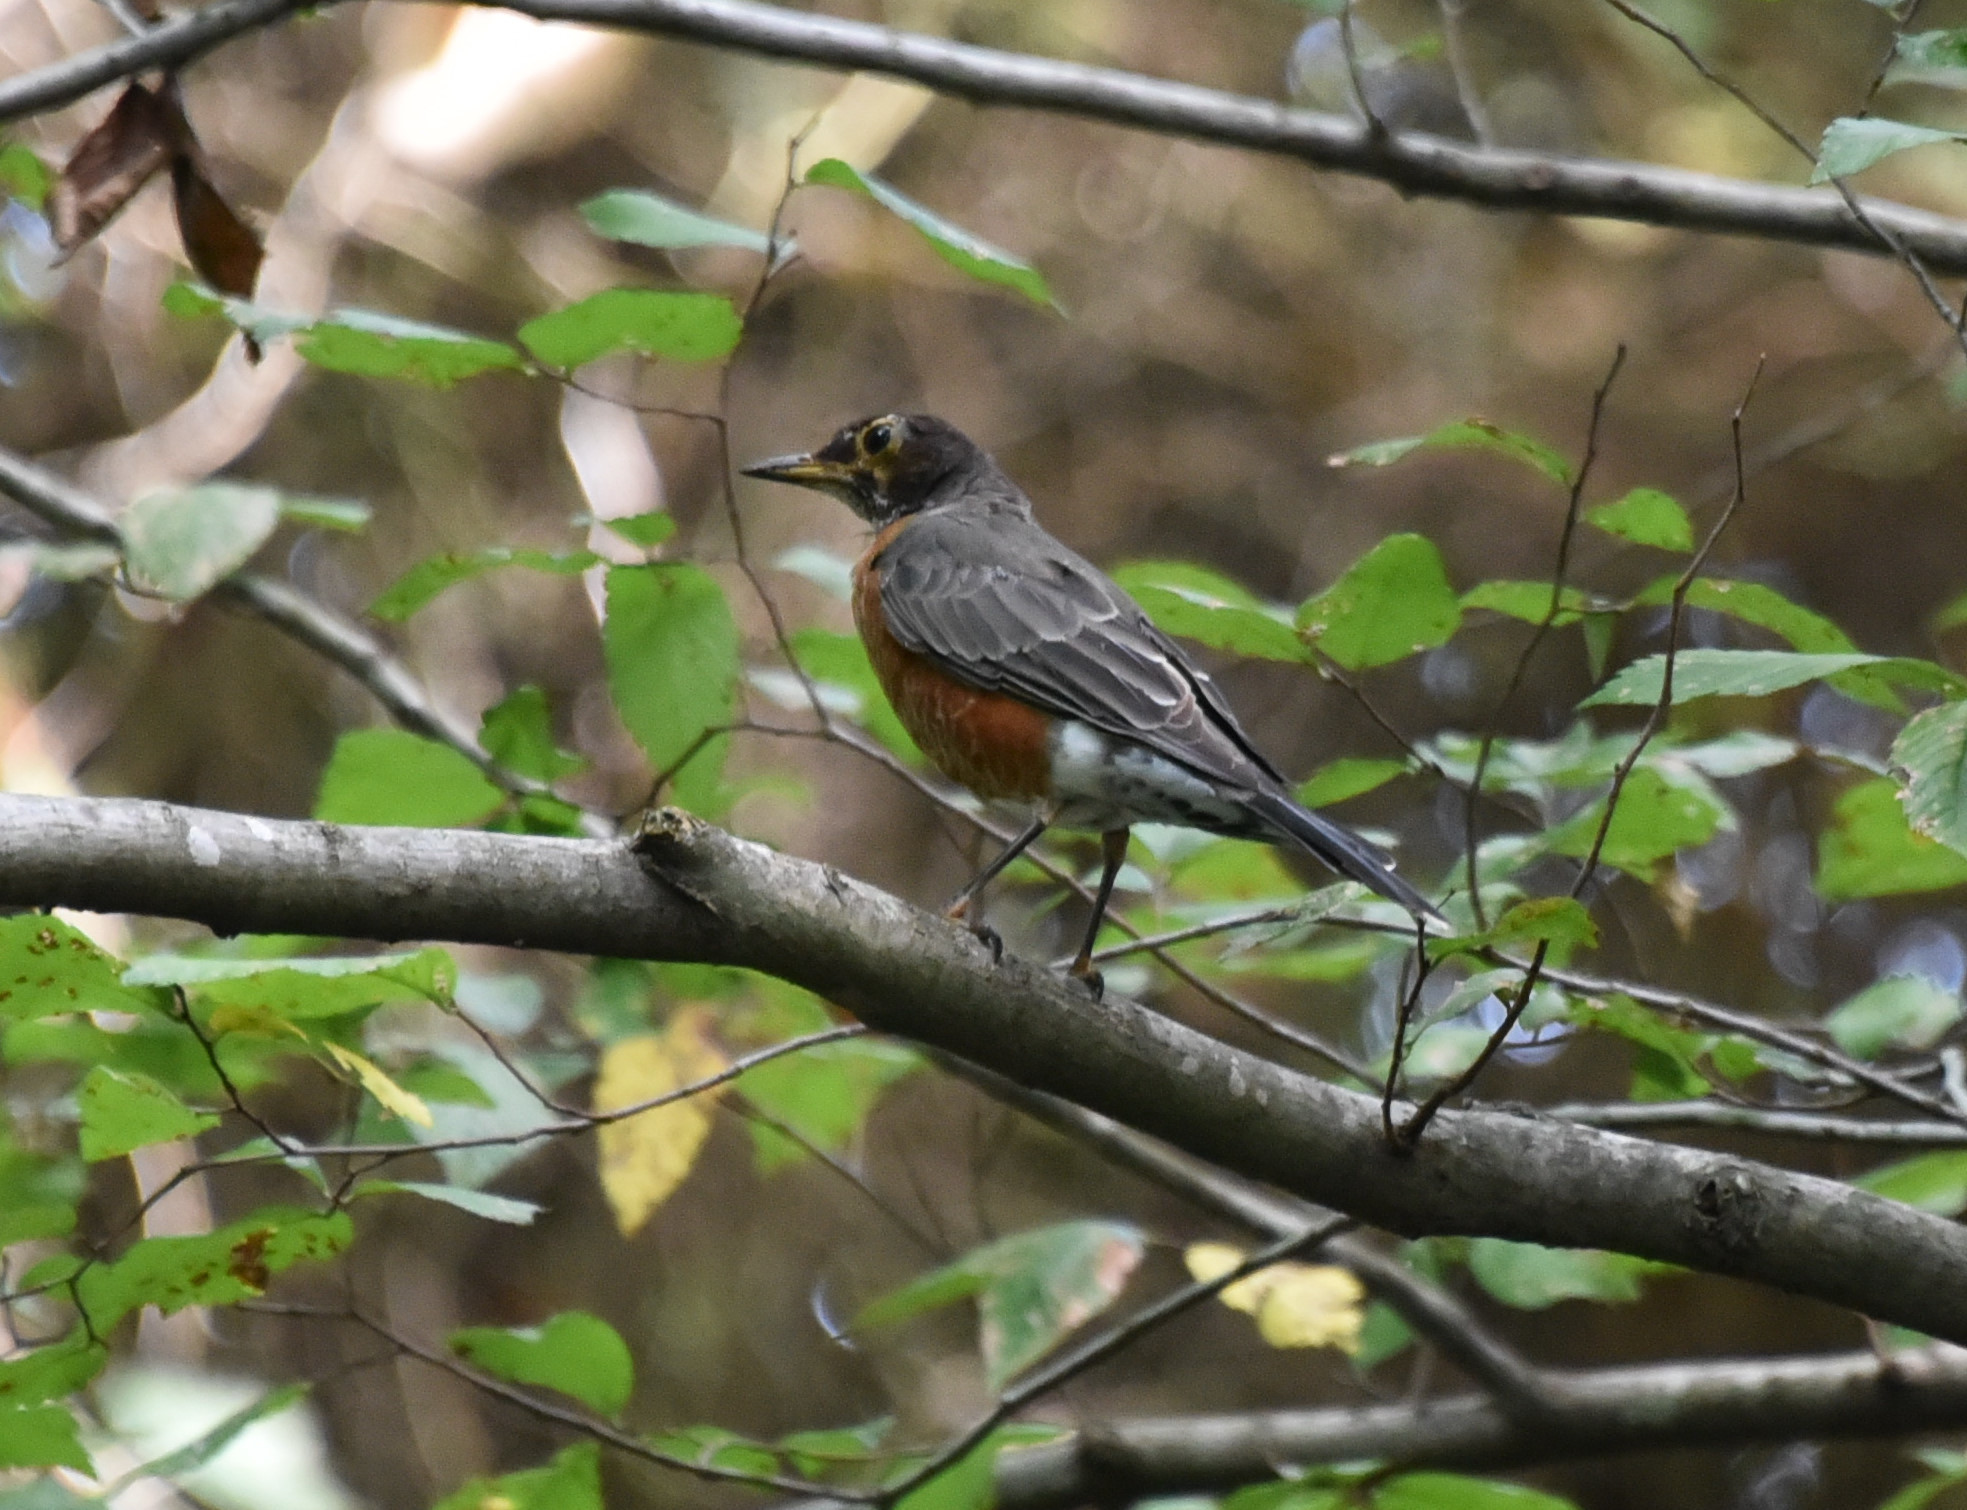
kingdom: Animalia
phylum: Chordata
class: Aves
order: Passeriformes
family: Turdidae
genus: Turdus
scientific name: Turdus migratorius
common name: American robin
